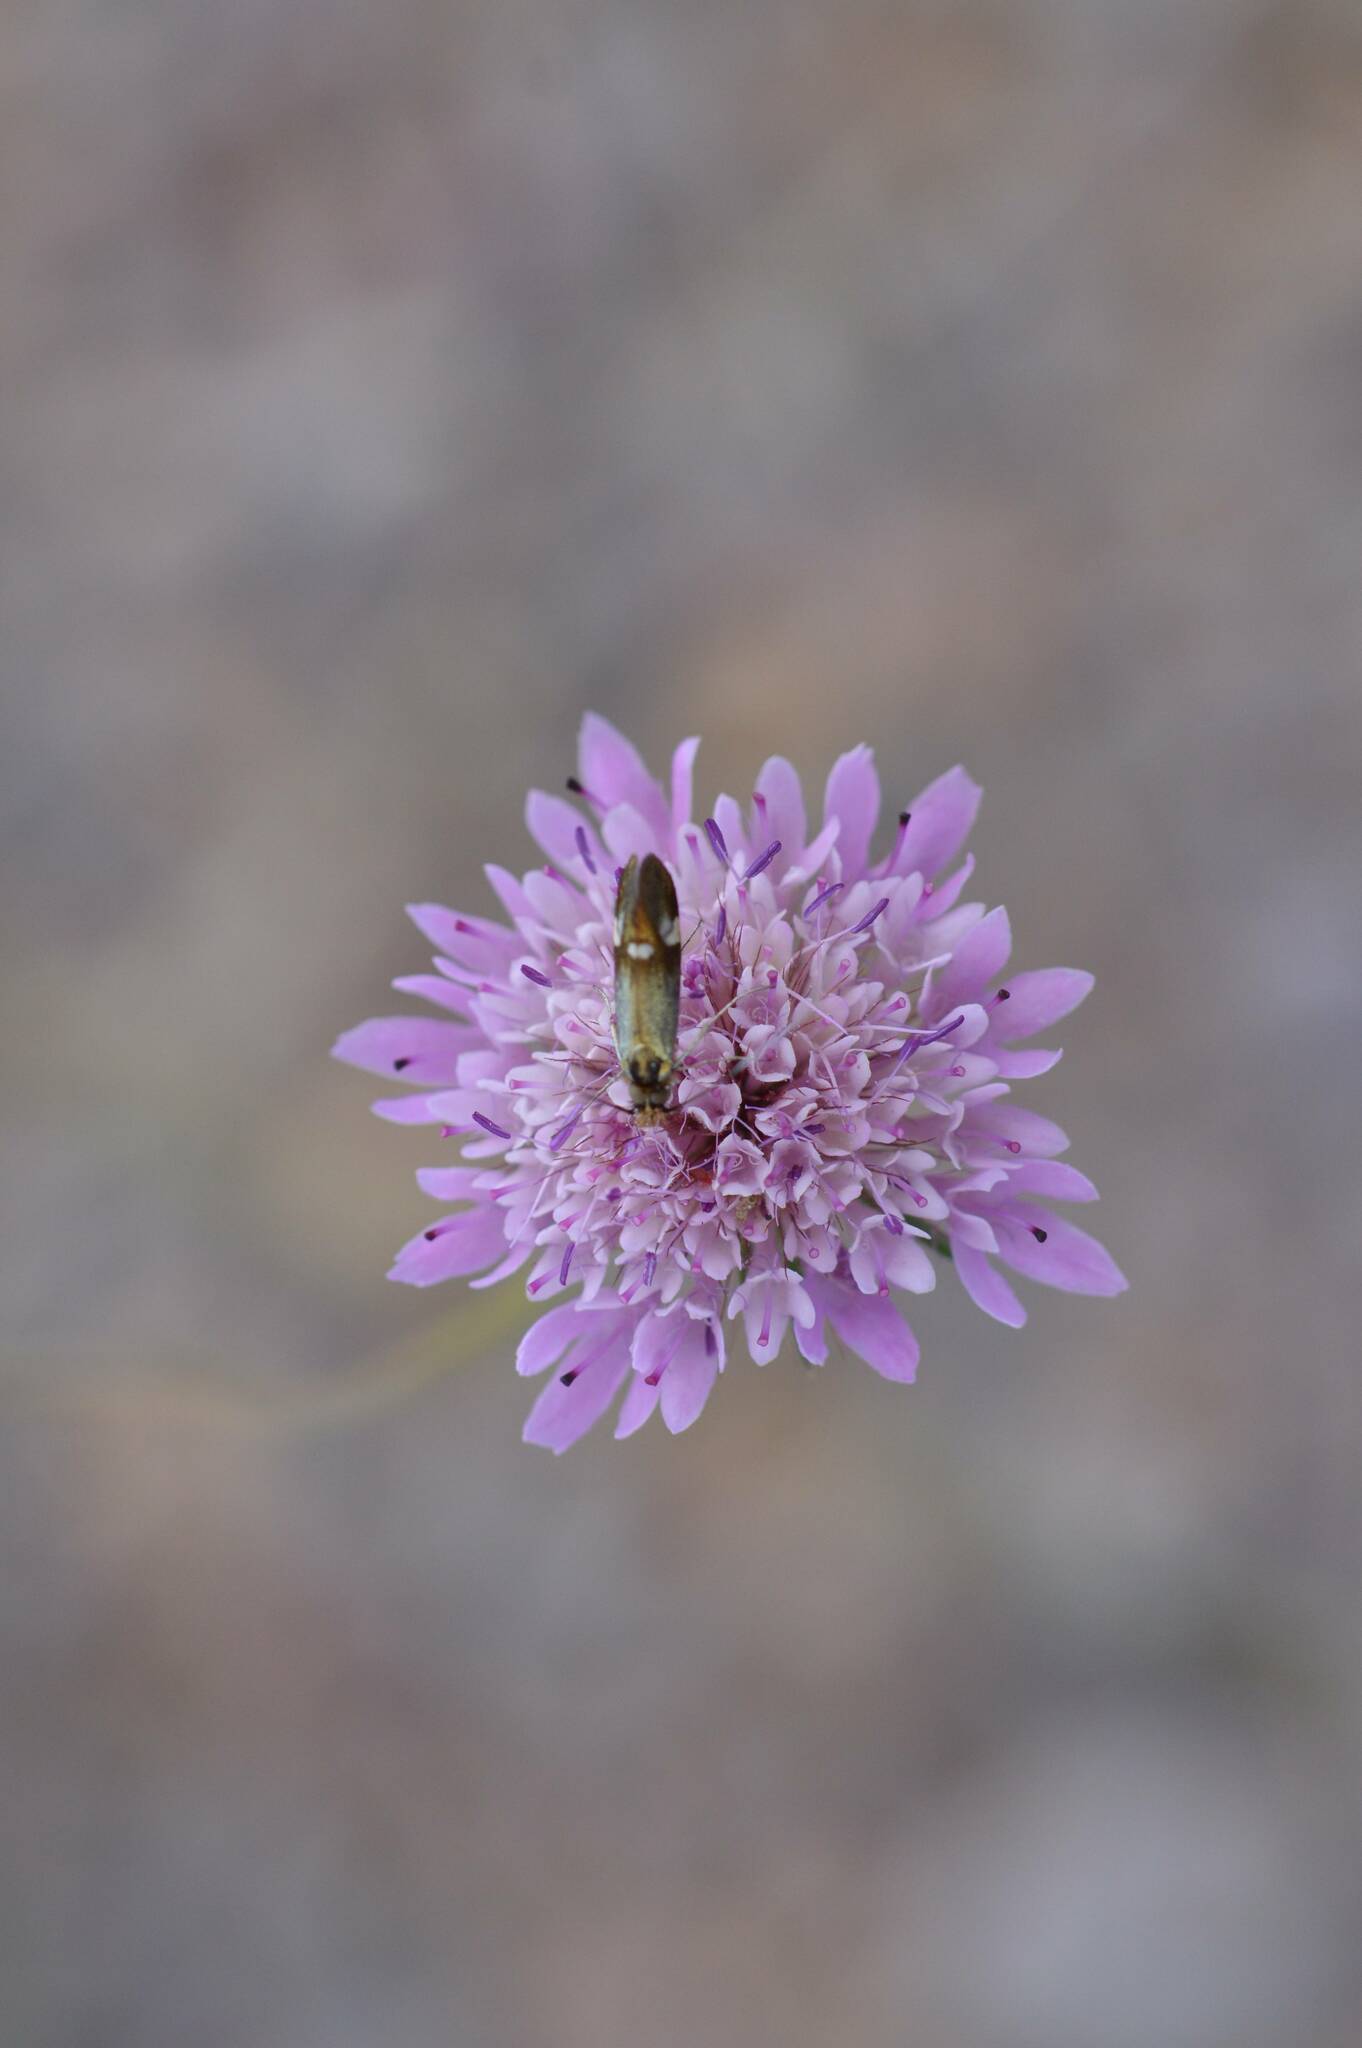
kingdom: Animalia
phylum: Arthropoda
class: Insecta
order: Lepidoptera
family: Adelidae
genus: Nemophora
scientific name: Nemophora raddaella
